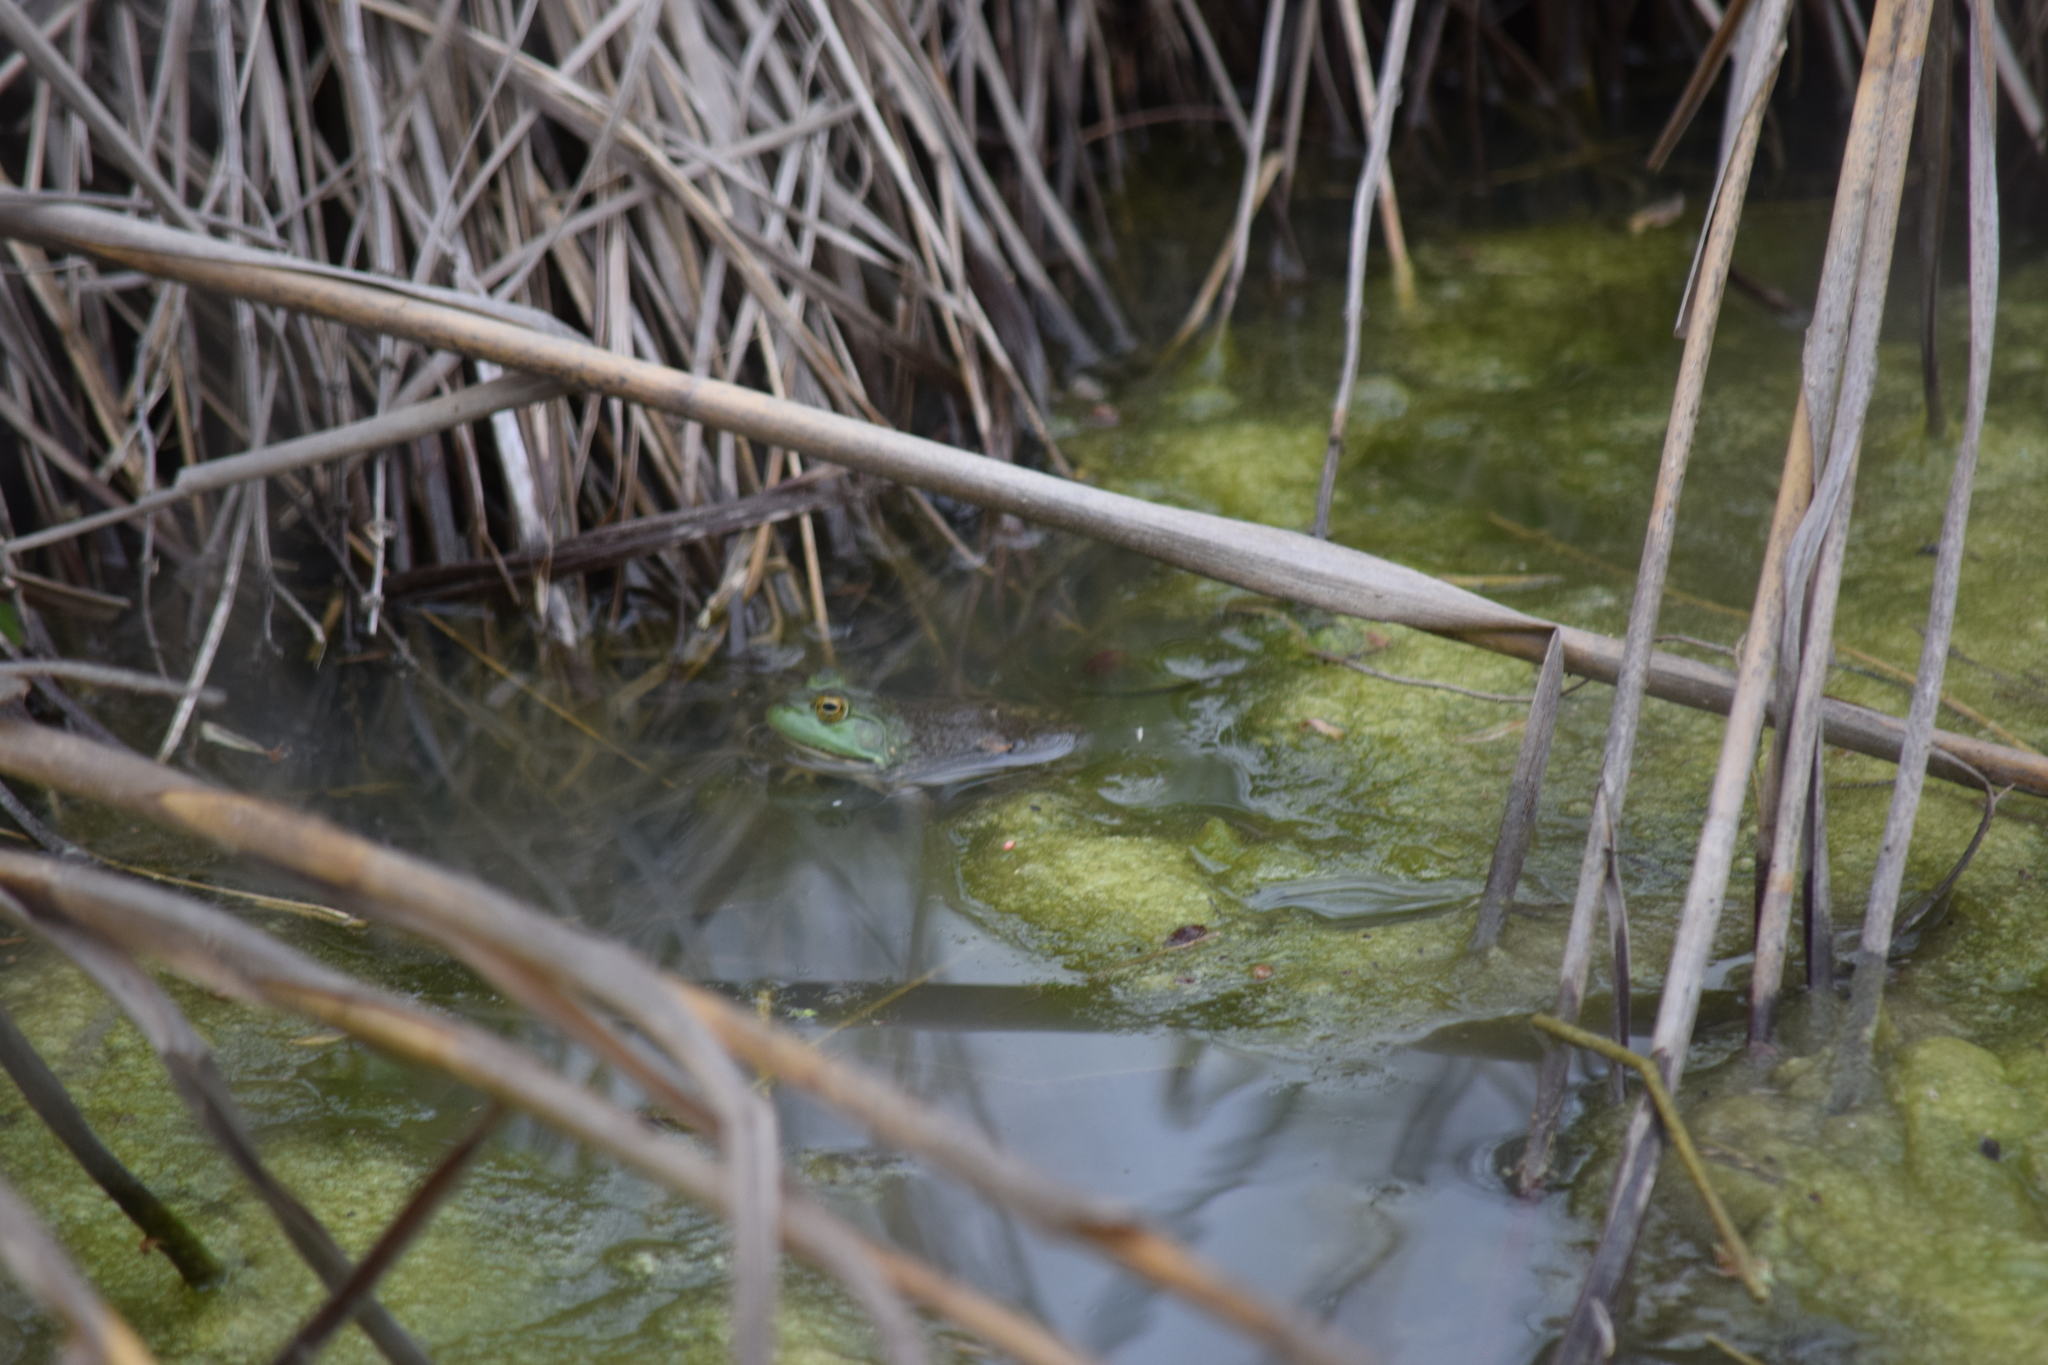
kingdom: Animalia
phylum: Chordata
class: Amphibia
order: Anura
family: Ranidae
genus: Lithobates
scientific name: Lithobates catesbeianus
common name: American bullfrog
